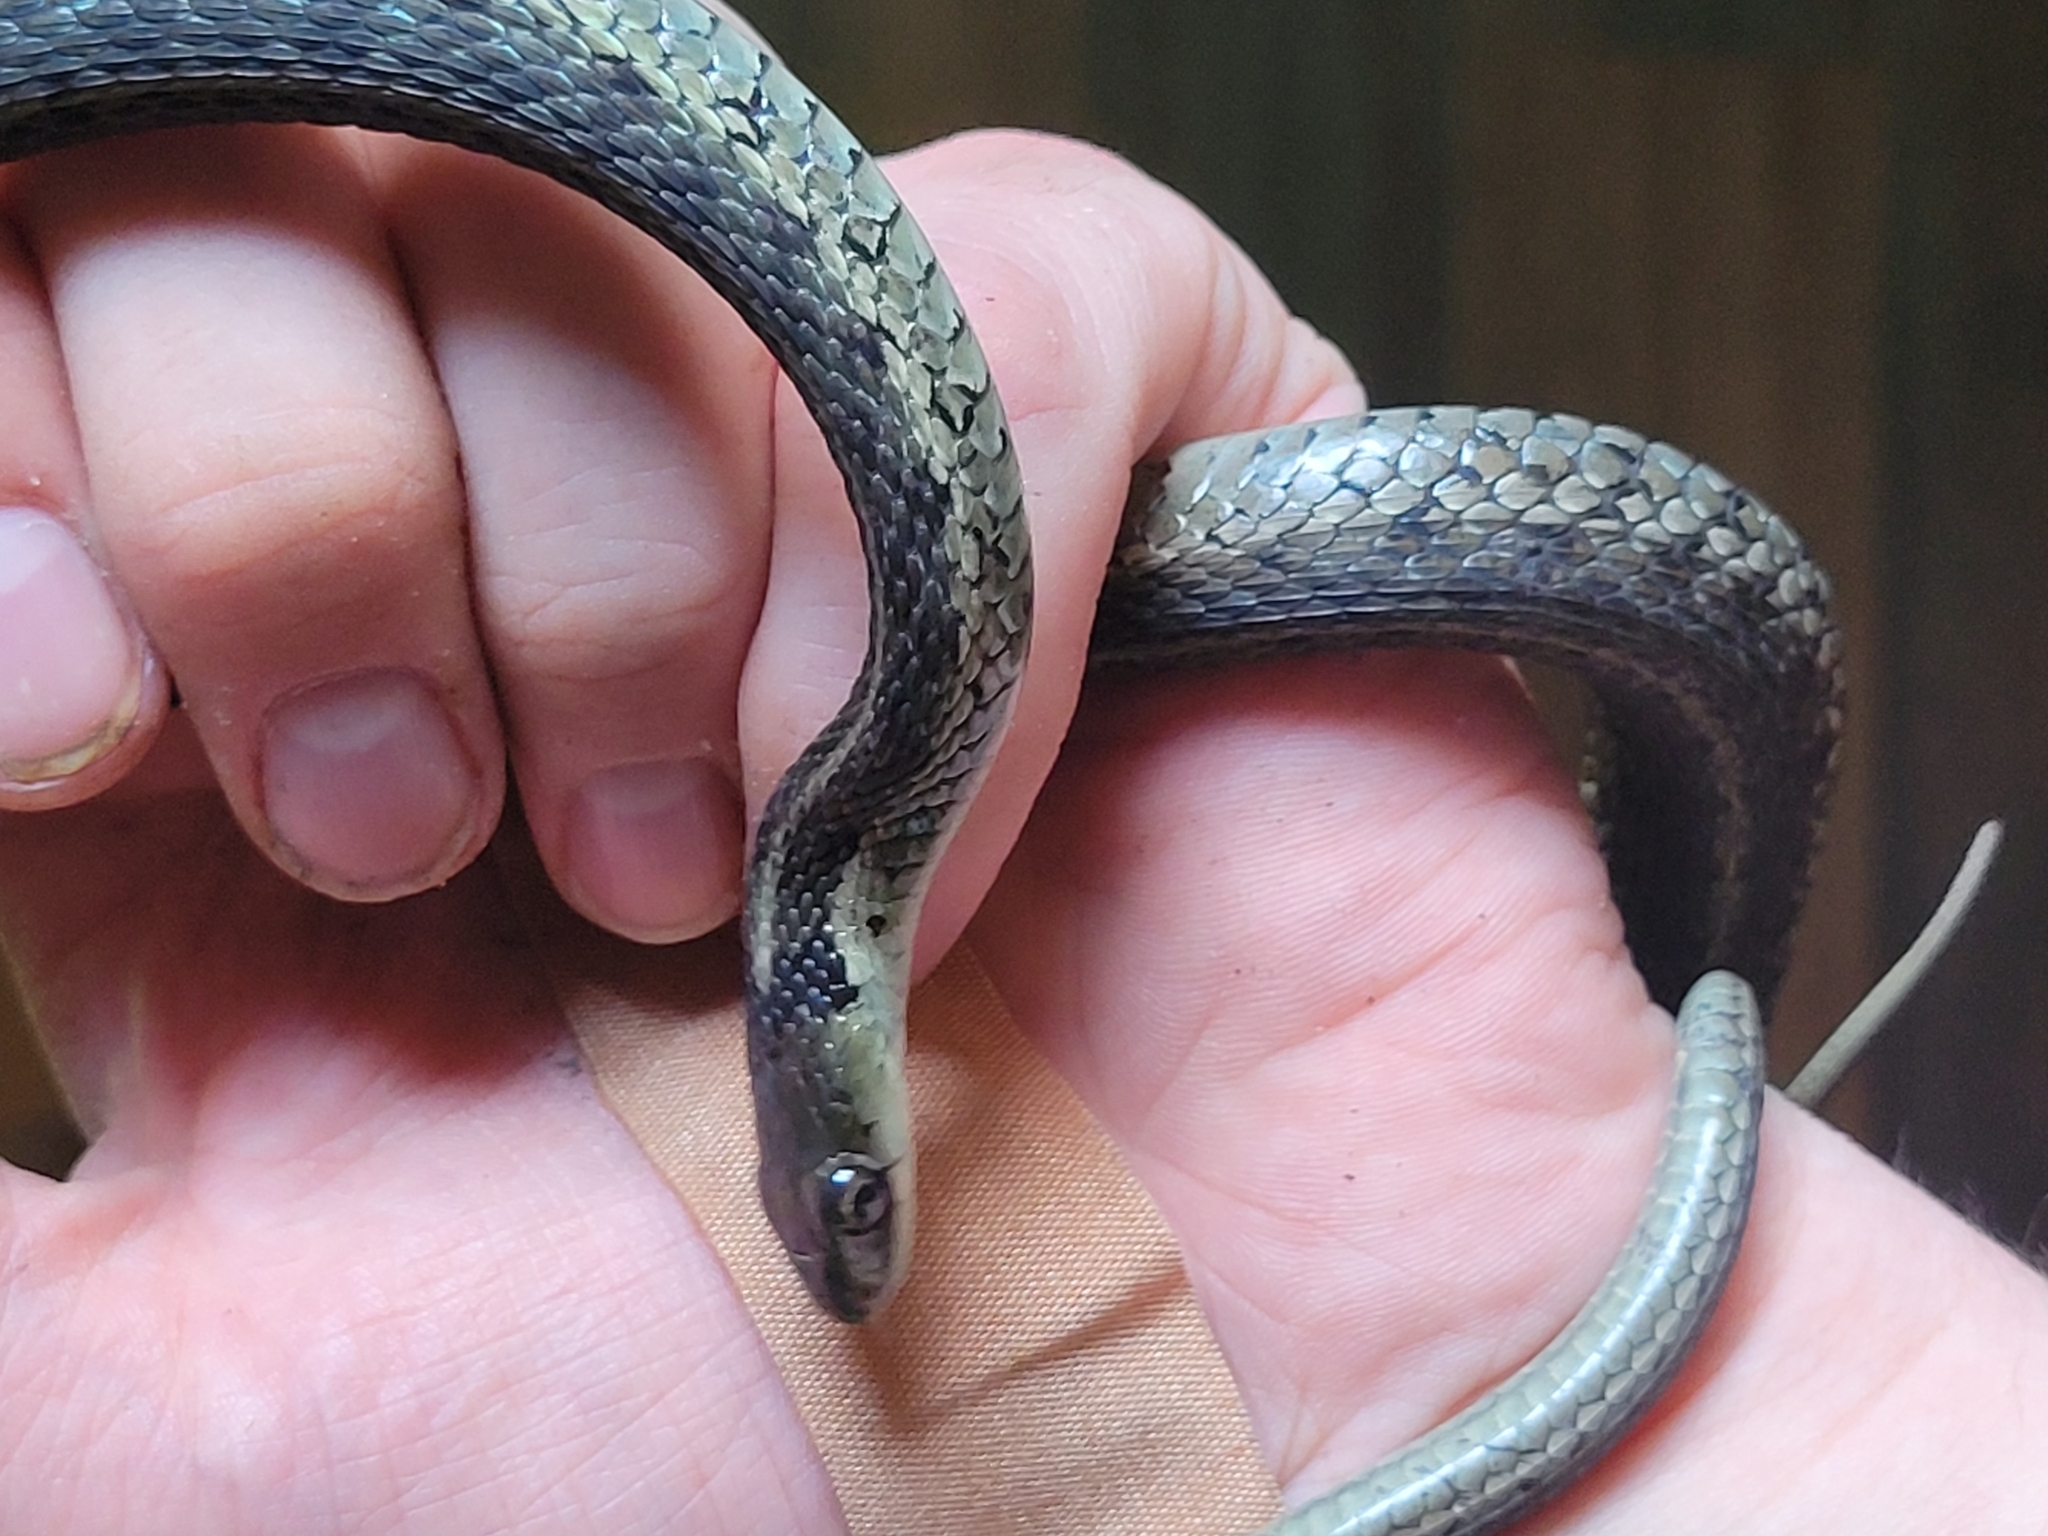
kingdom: Animalia
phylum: Chordata
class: Squamata
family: Colubridae
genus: Thamnophis
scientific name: Thamnophis sirtalis
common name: Common garter snake
